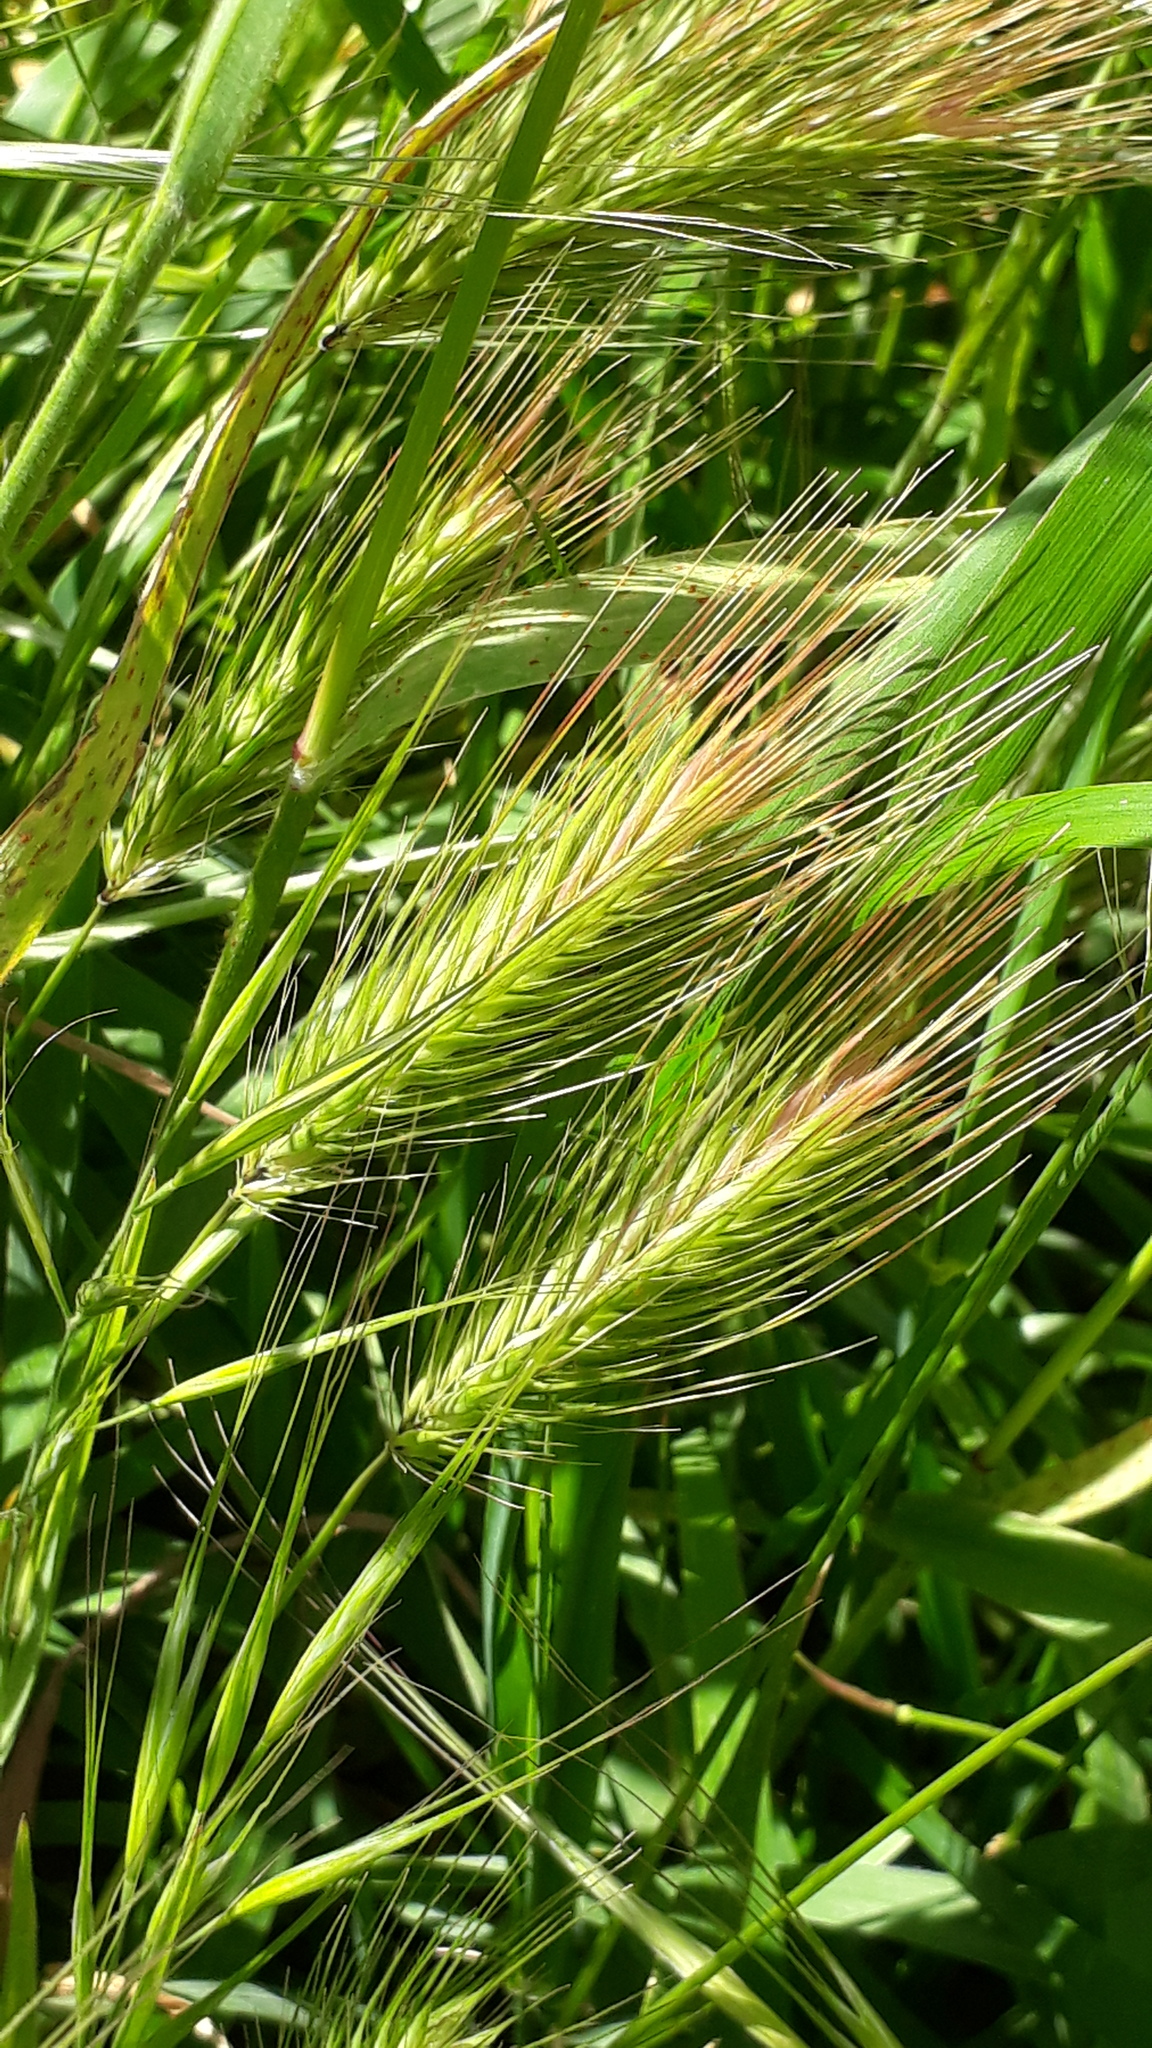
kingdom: Plantae
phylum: Tracheophyta
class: Liliopsida
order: Poales
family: Poaceae
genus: Hordeum
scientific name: Hordeum murinum
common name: Wall barley
